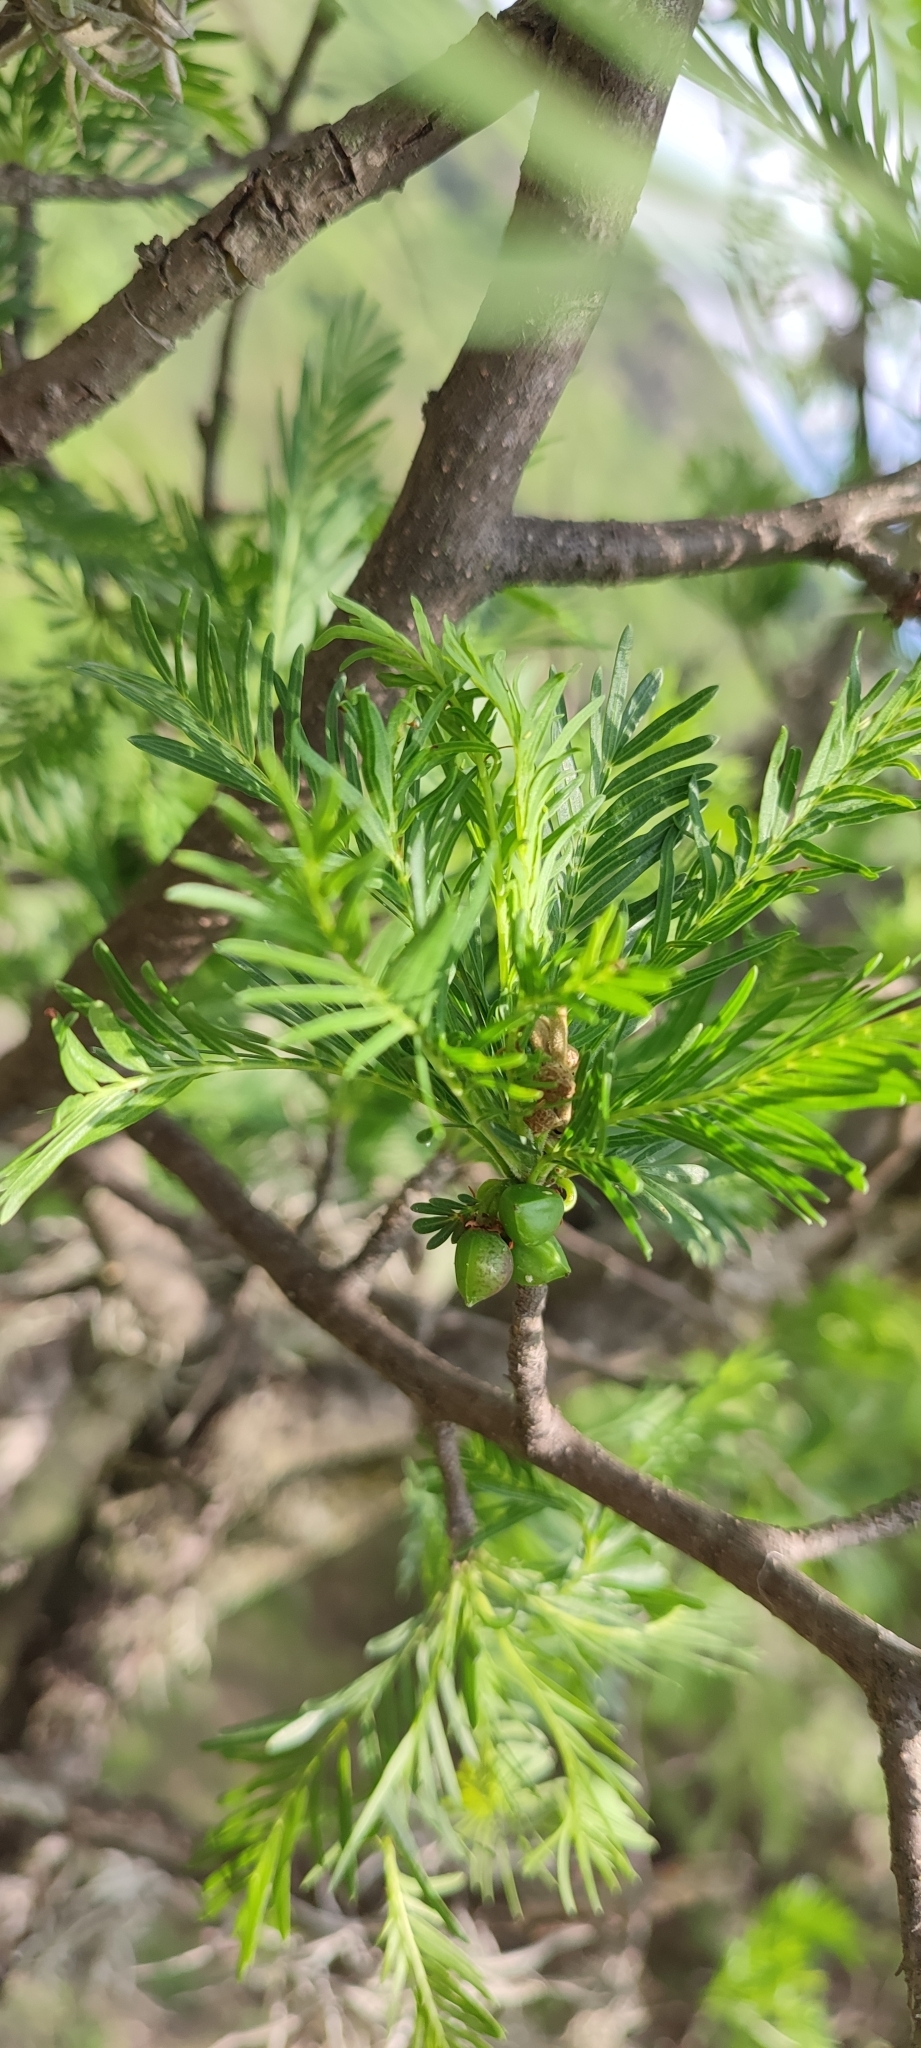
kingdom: Plantae
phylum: Tracheophyta
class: Magnoliopsida
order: Sapindales
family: Burseraceae
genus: Bursera
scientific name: Bursera galeottiana
